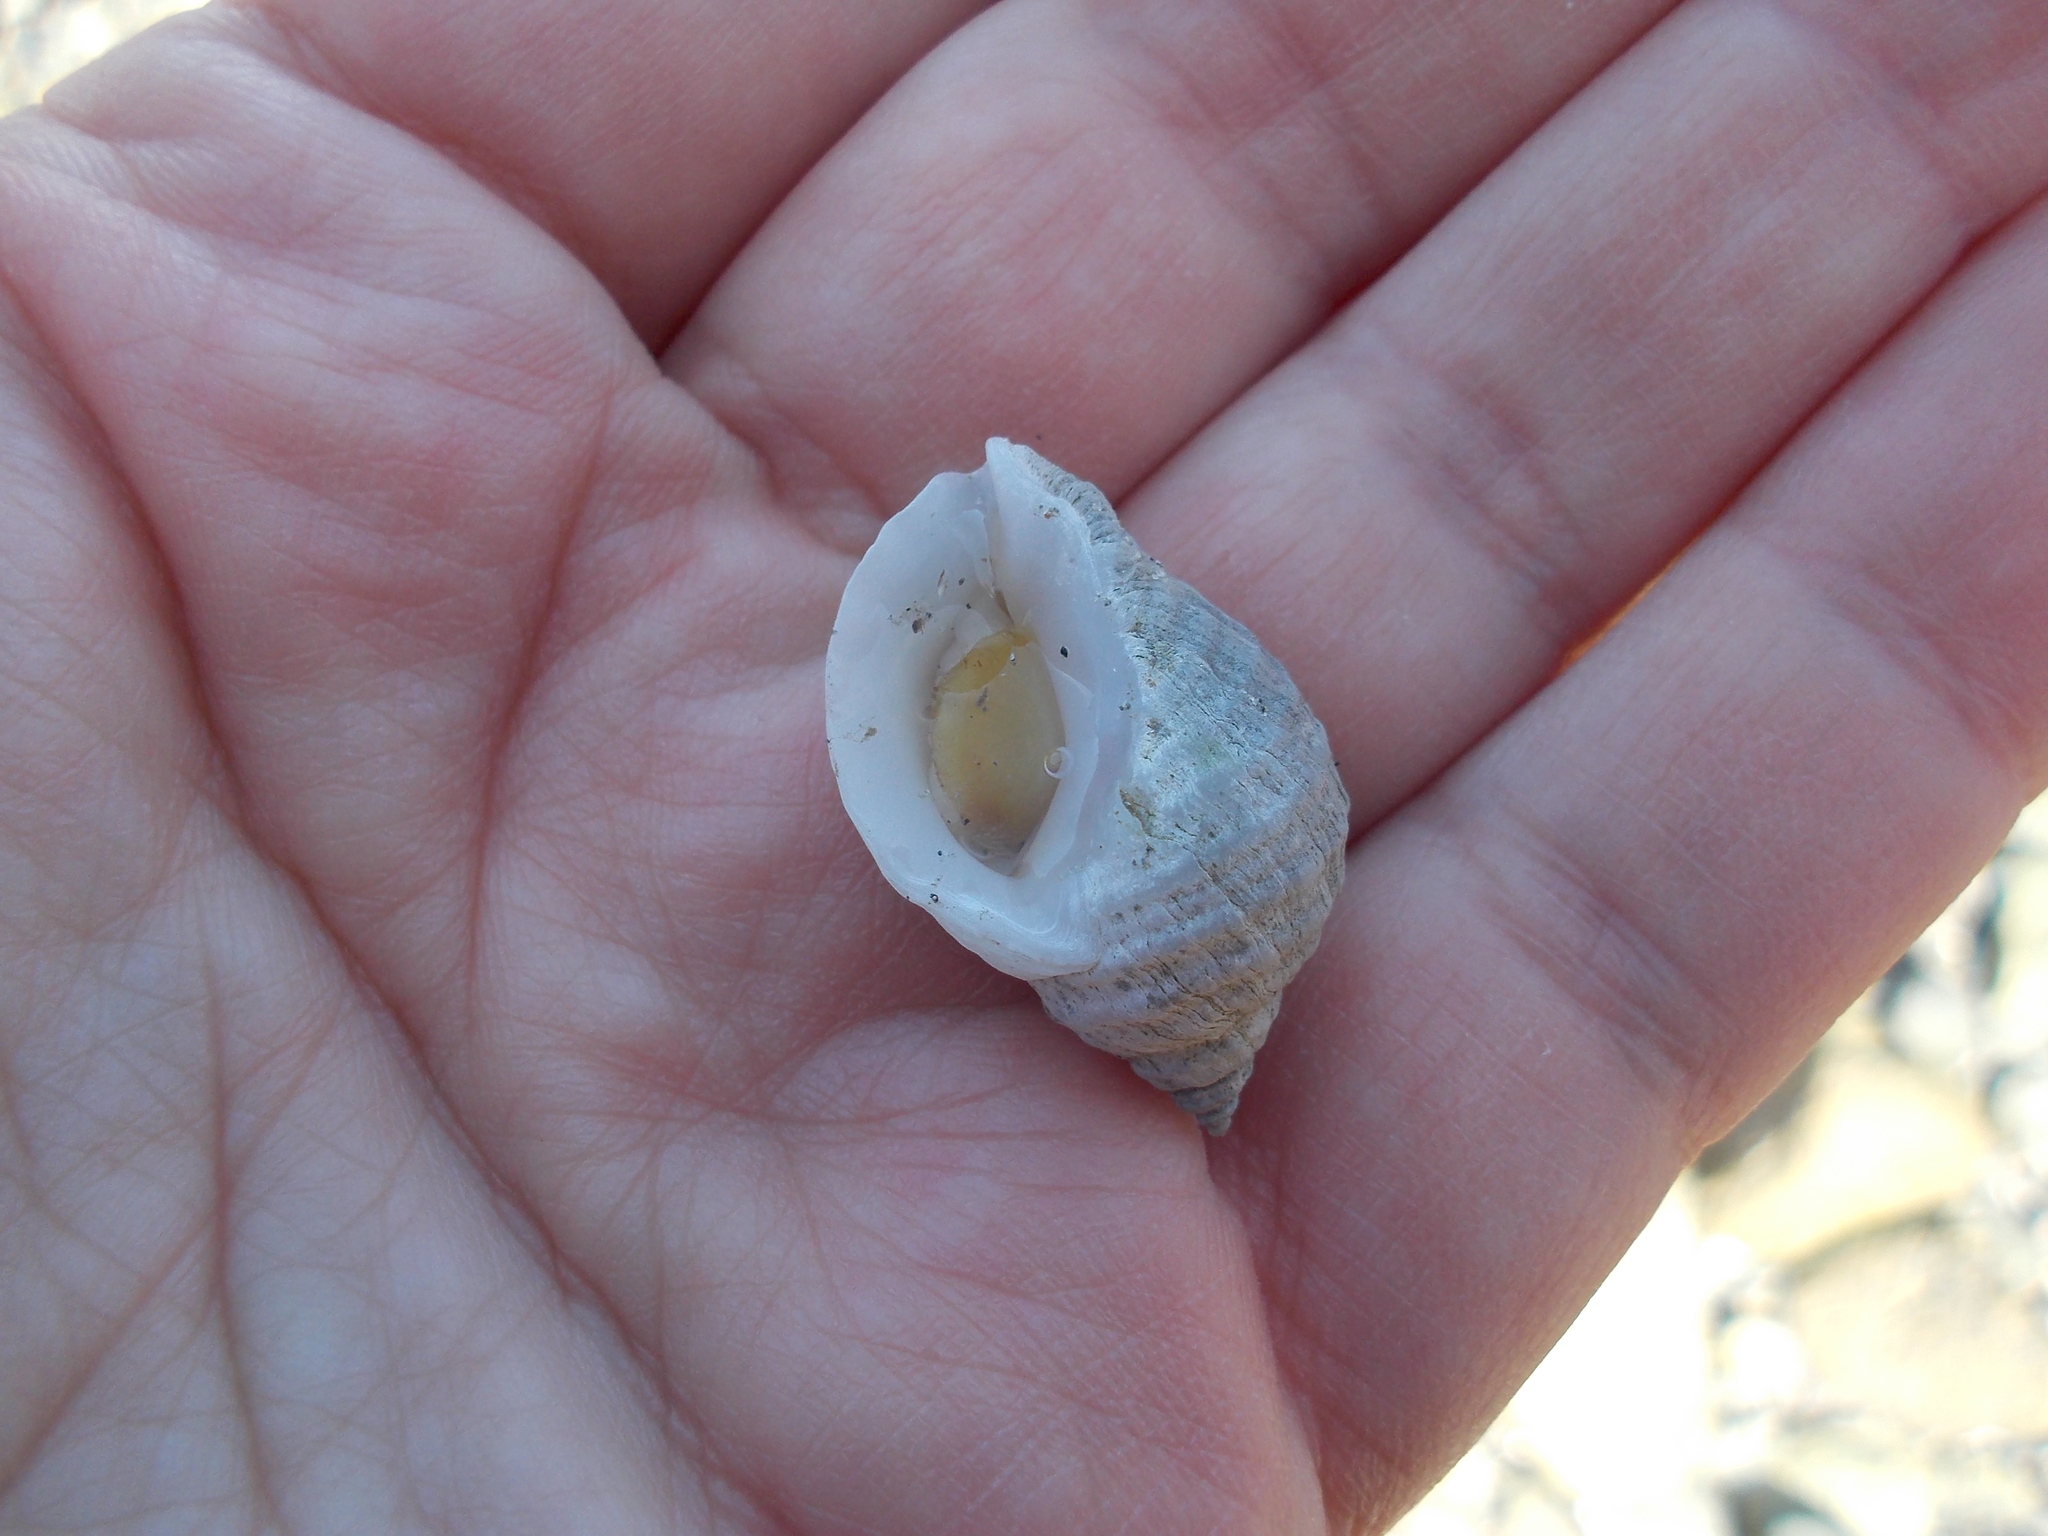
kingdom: Animalia
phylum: Mollusca
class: Gastropoda
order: Neogastropoda
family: Muricidae
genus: Nucella
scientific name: Nucella lapillus
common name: Dog whelk
